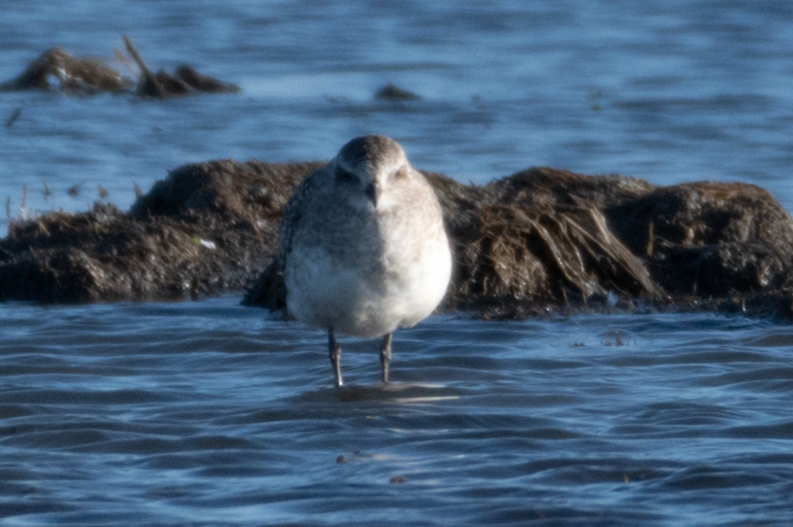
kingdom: Animalia
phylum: Chordata
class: Aves
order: Charadriiformes
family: Charadriidae
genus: Pluvialis
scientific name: Pluvialis squatarola
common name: Grey plover
